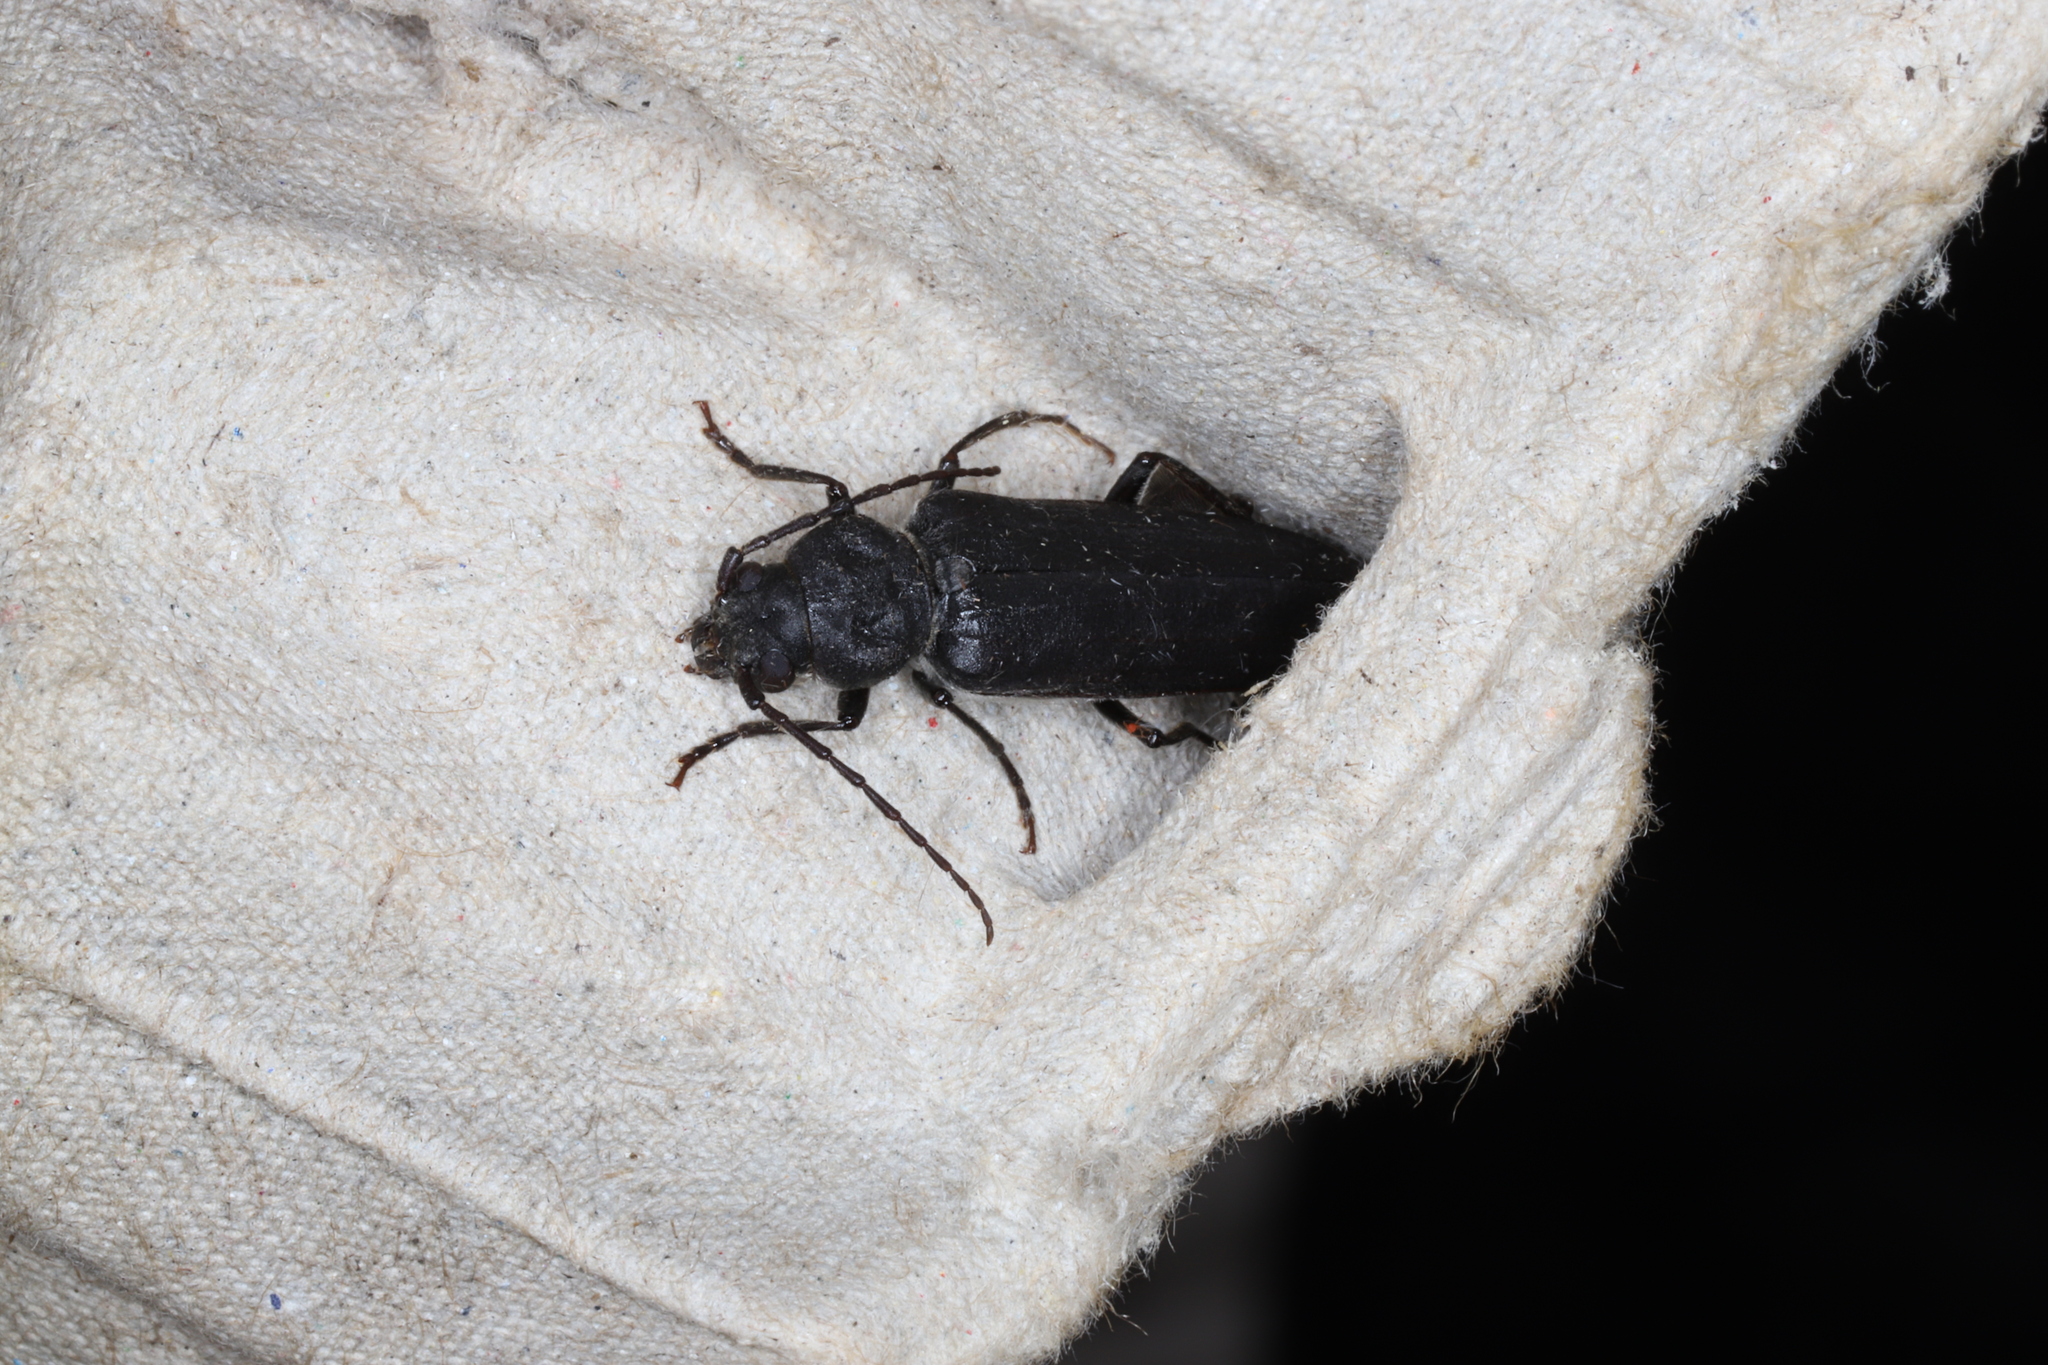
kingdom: Animalia
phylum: Arthropoda
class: Insecta
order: Coleoptera
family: Cerambycidae
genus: Arhopalus
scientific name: Arhopalus foveicollis
